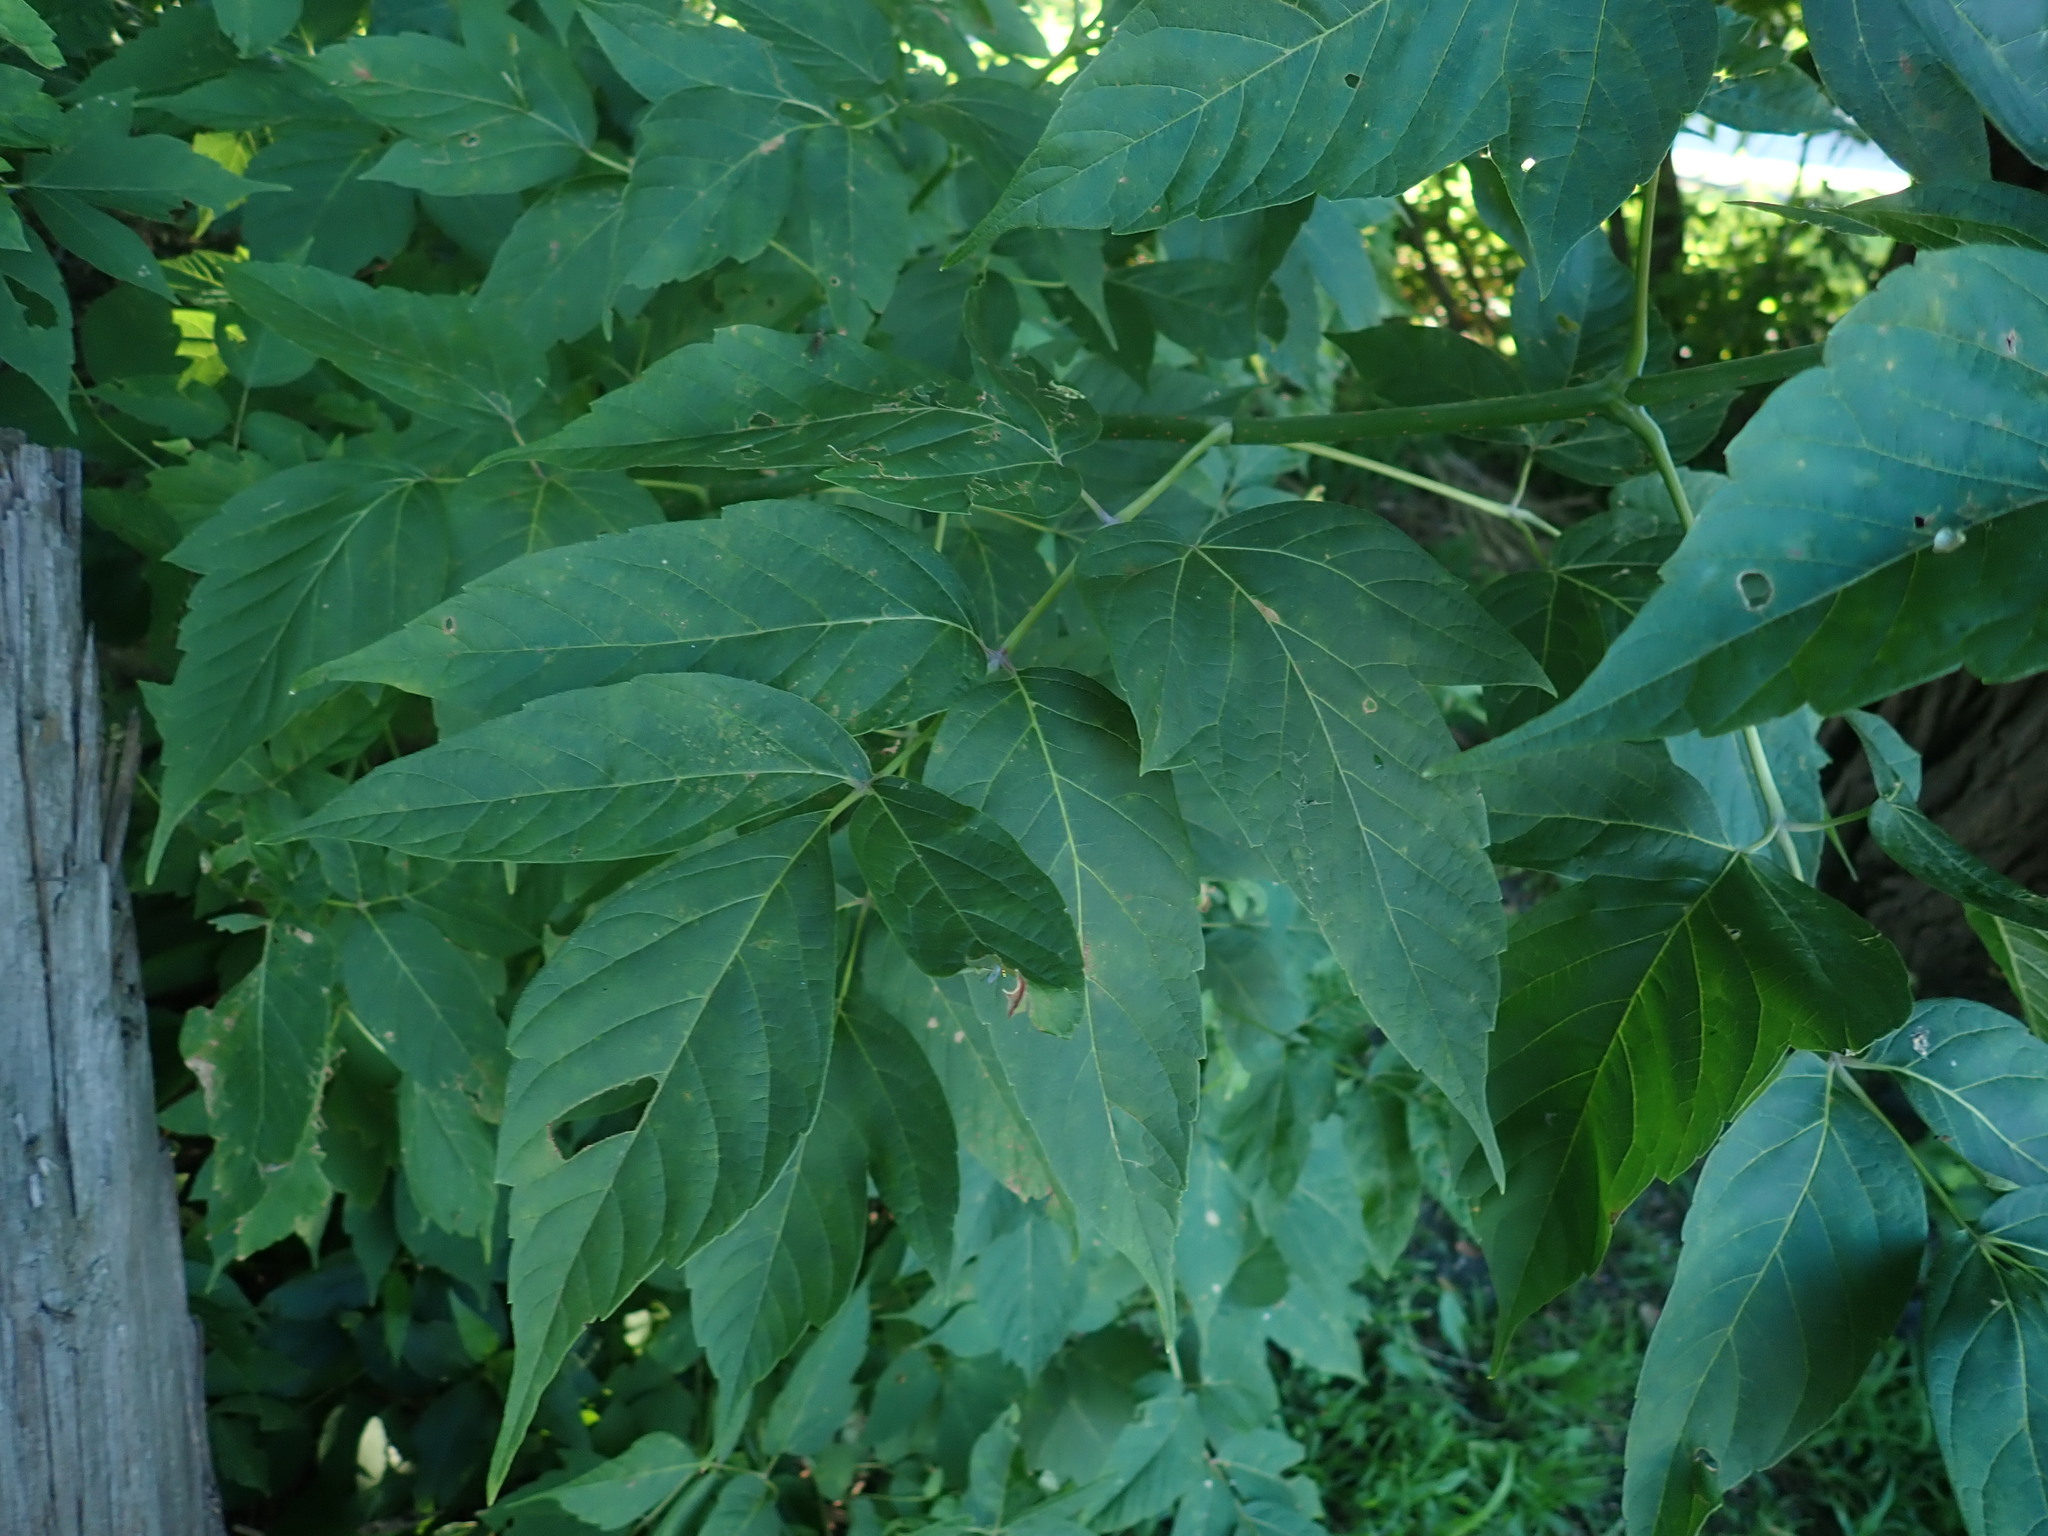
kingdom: Plantae
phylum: Tracheophyta
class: Magnoliopsida
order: Sapindales
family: Sapindaceae
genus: Acer
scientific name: Acer negundo
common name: Ashleaf maple
